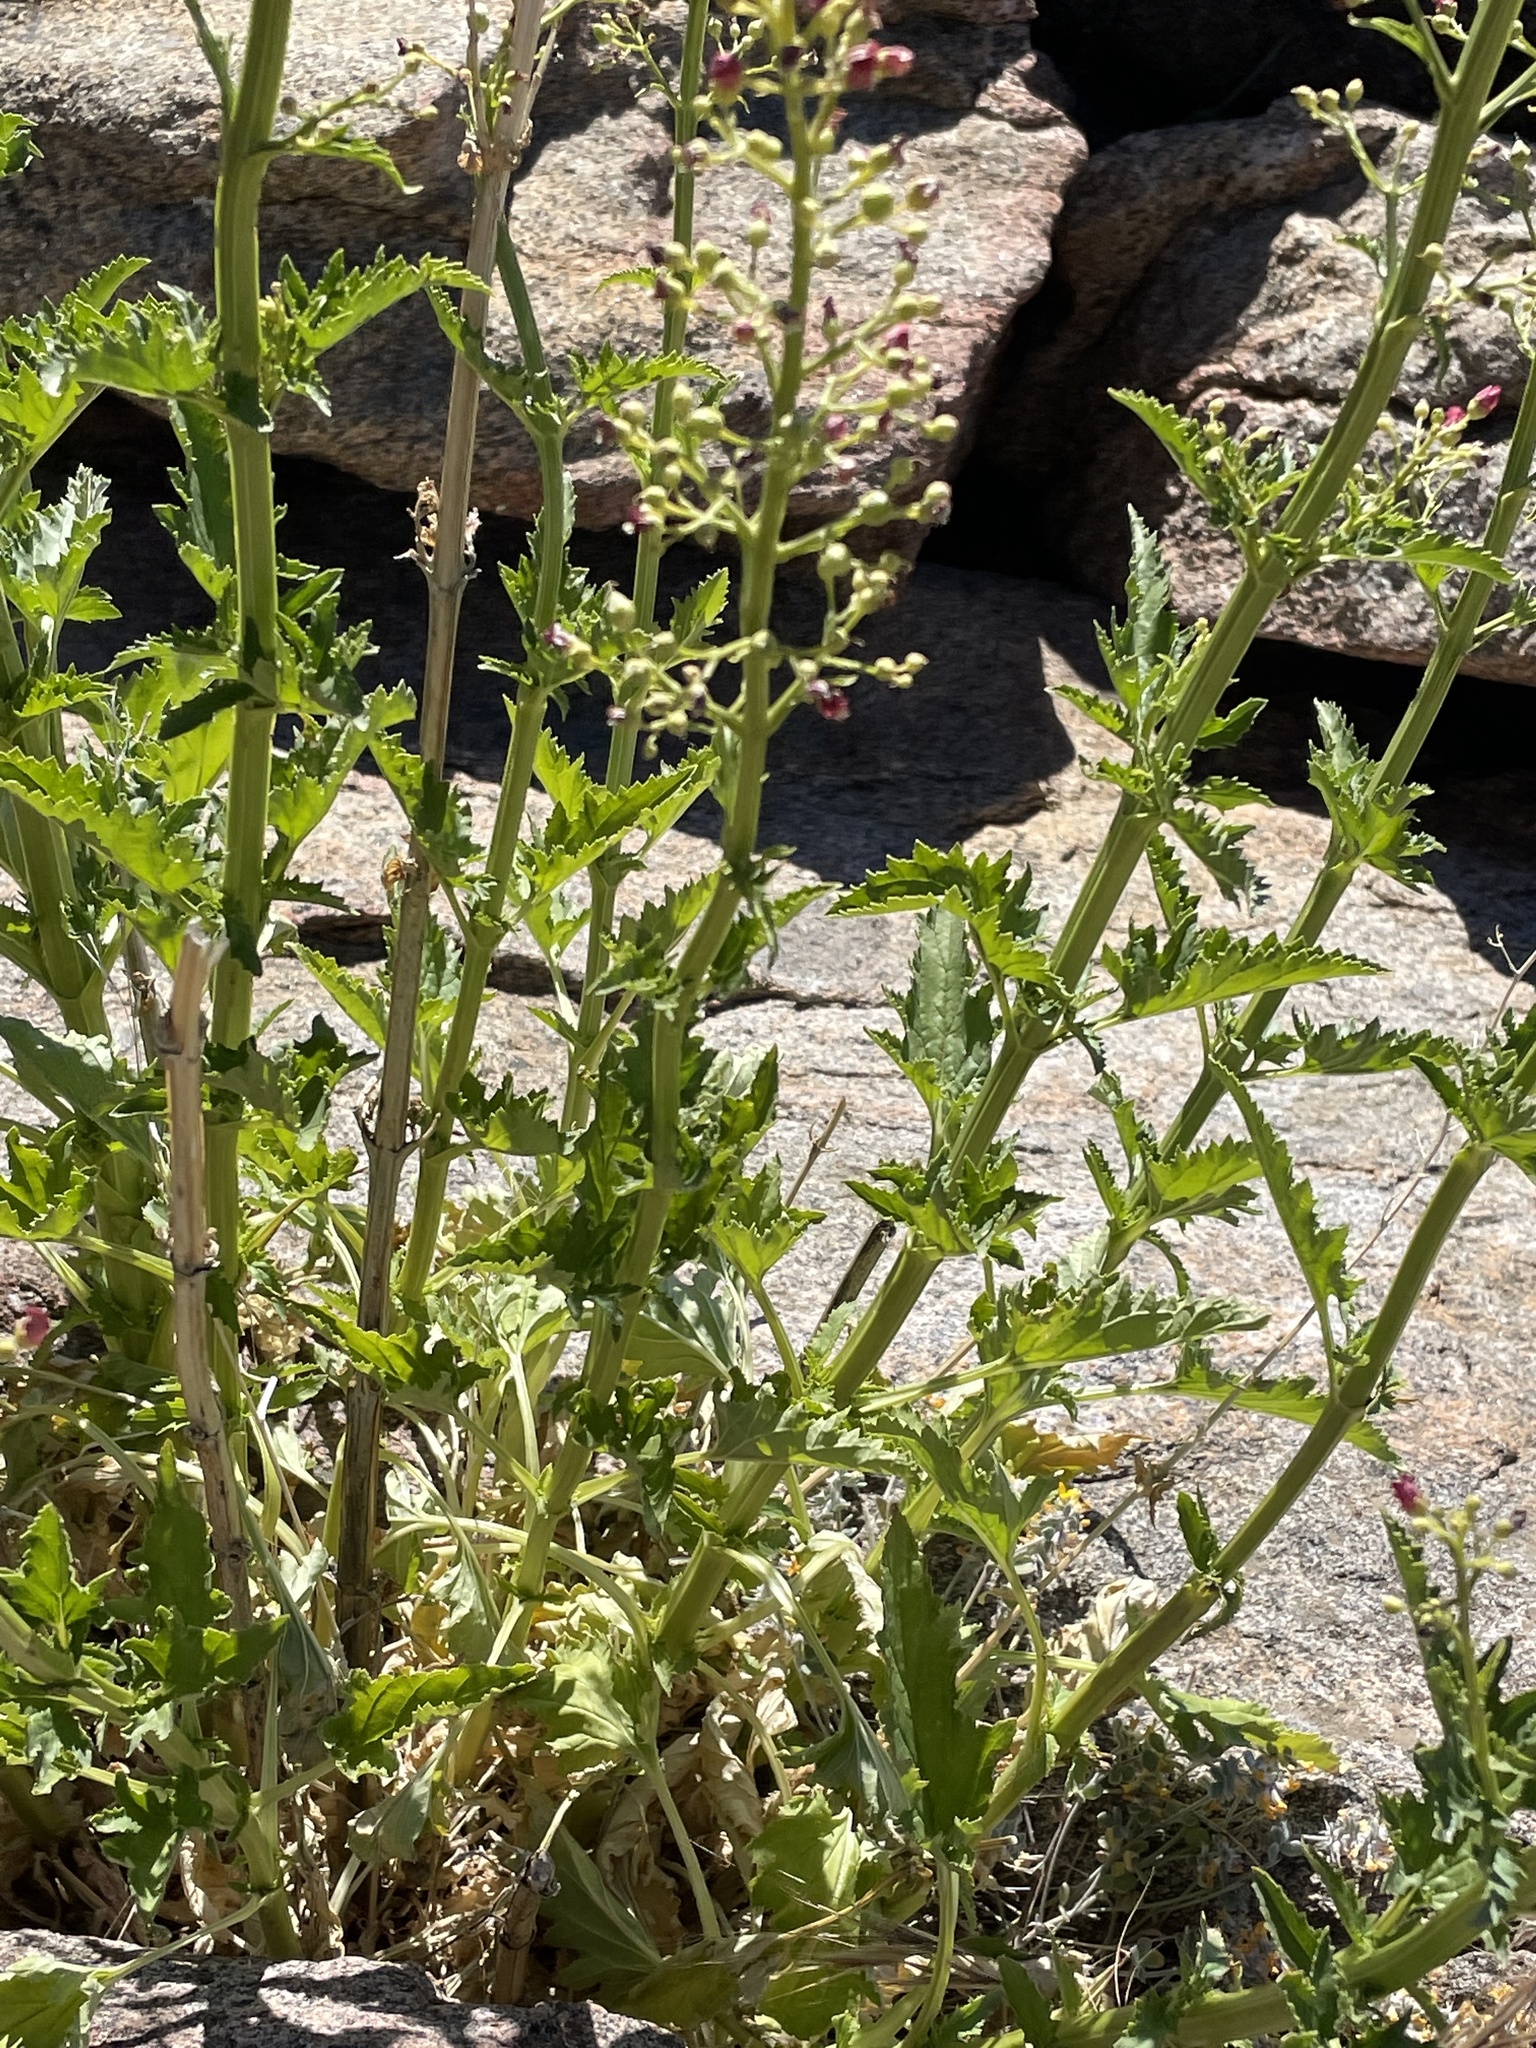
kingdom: Plantae
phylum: Tracheophyta
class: Magnoliopsida
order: Lamiales
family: Scrophulariaceae
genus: Scrophularia
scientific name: Scrophularia californica
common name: California figwort
